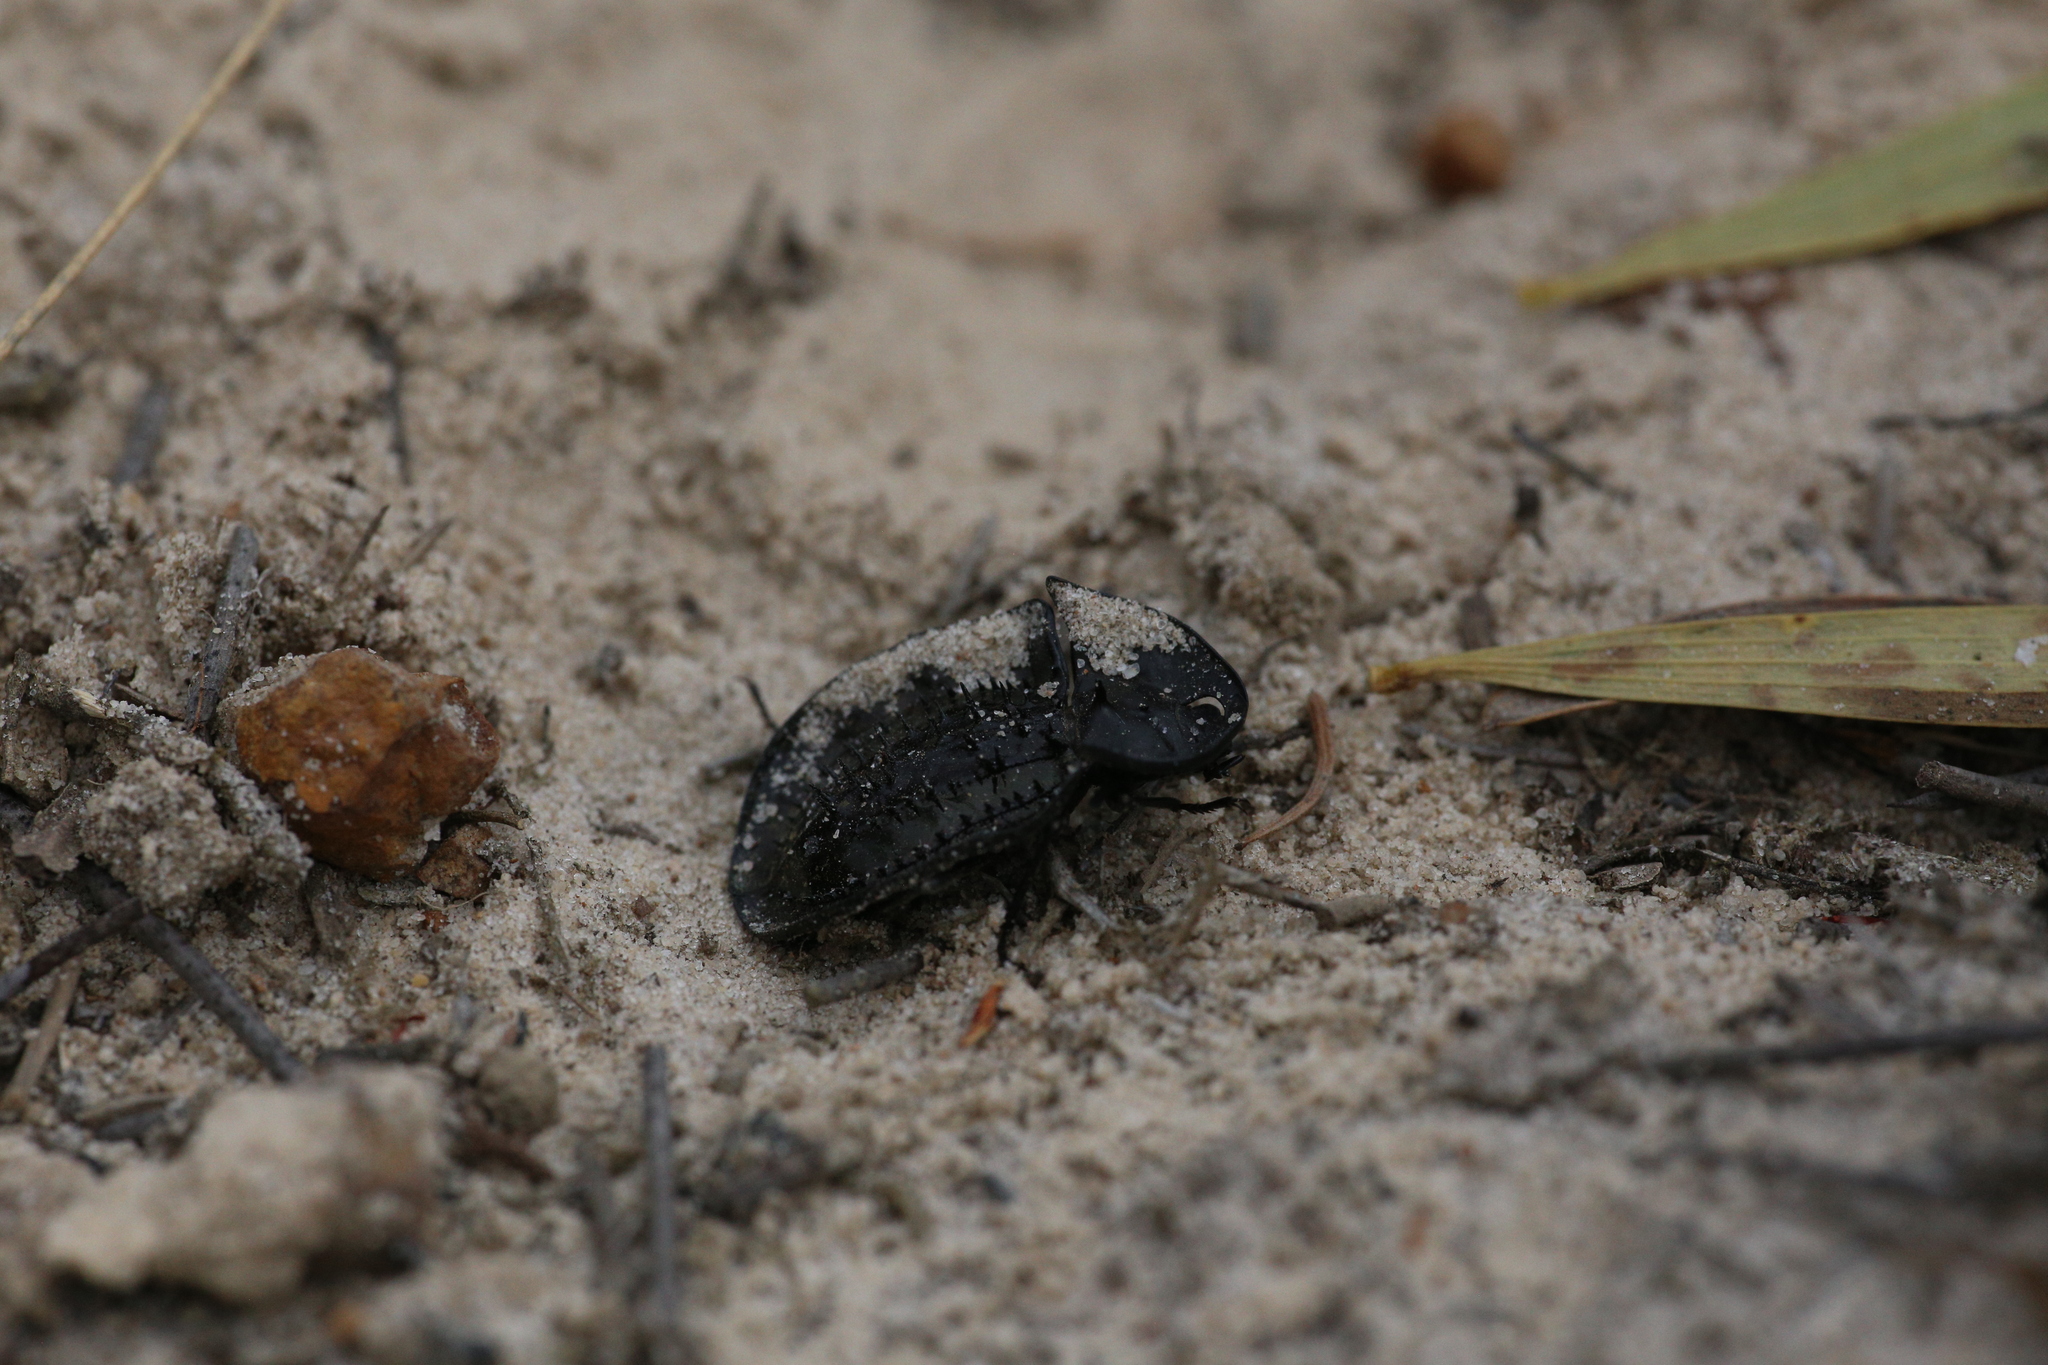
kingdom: Animalia
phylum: Arthropoda
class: Insecta
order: Coleoptera
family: Tenebrionidae
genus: Helea
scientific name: Helea
